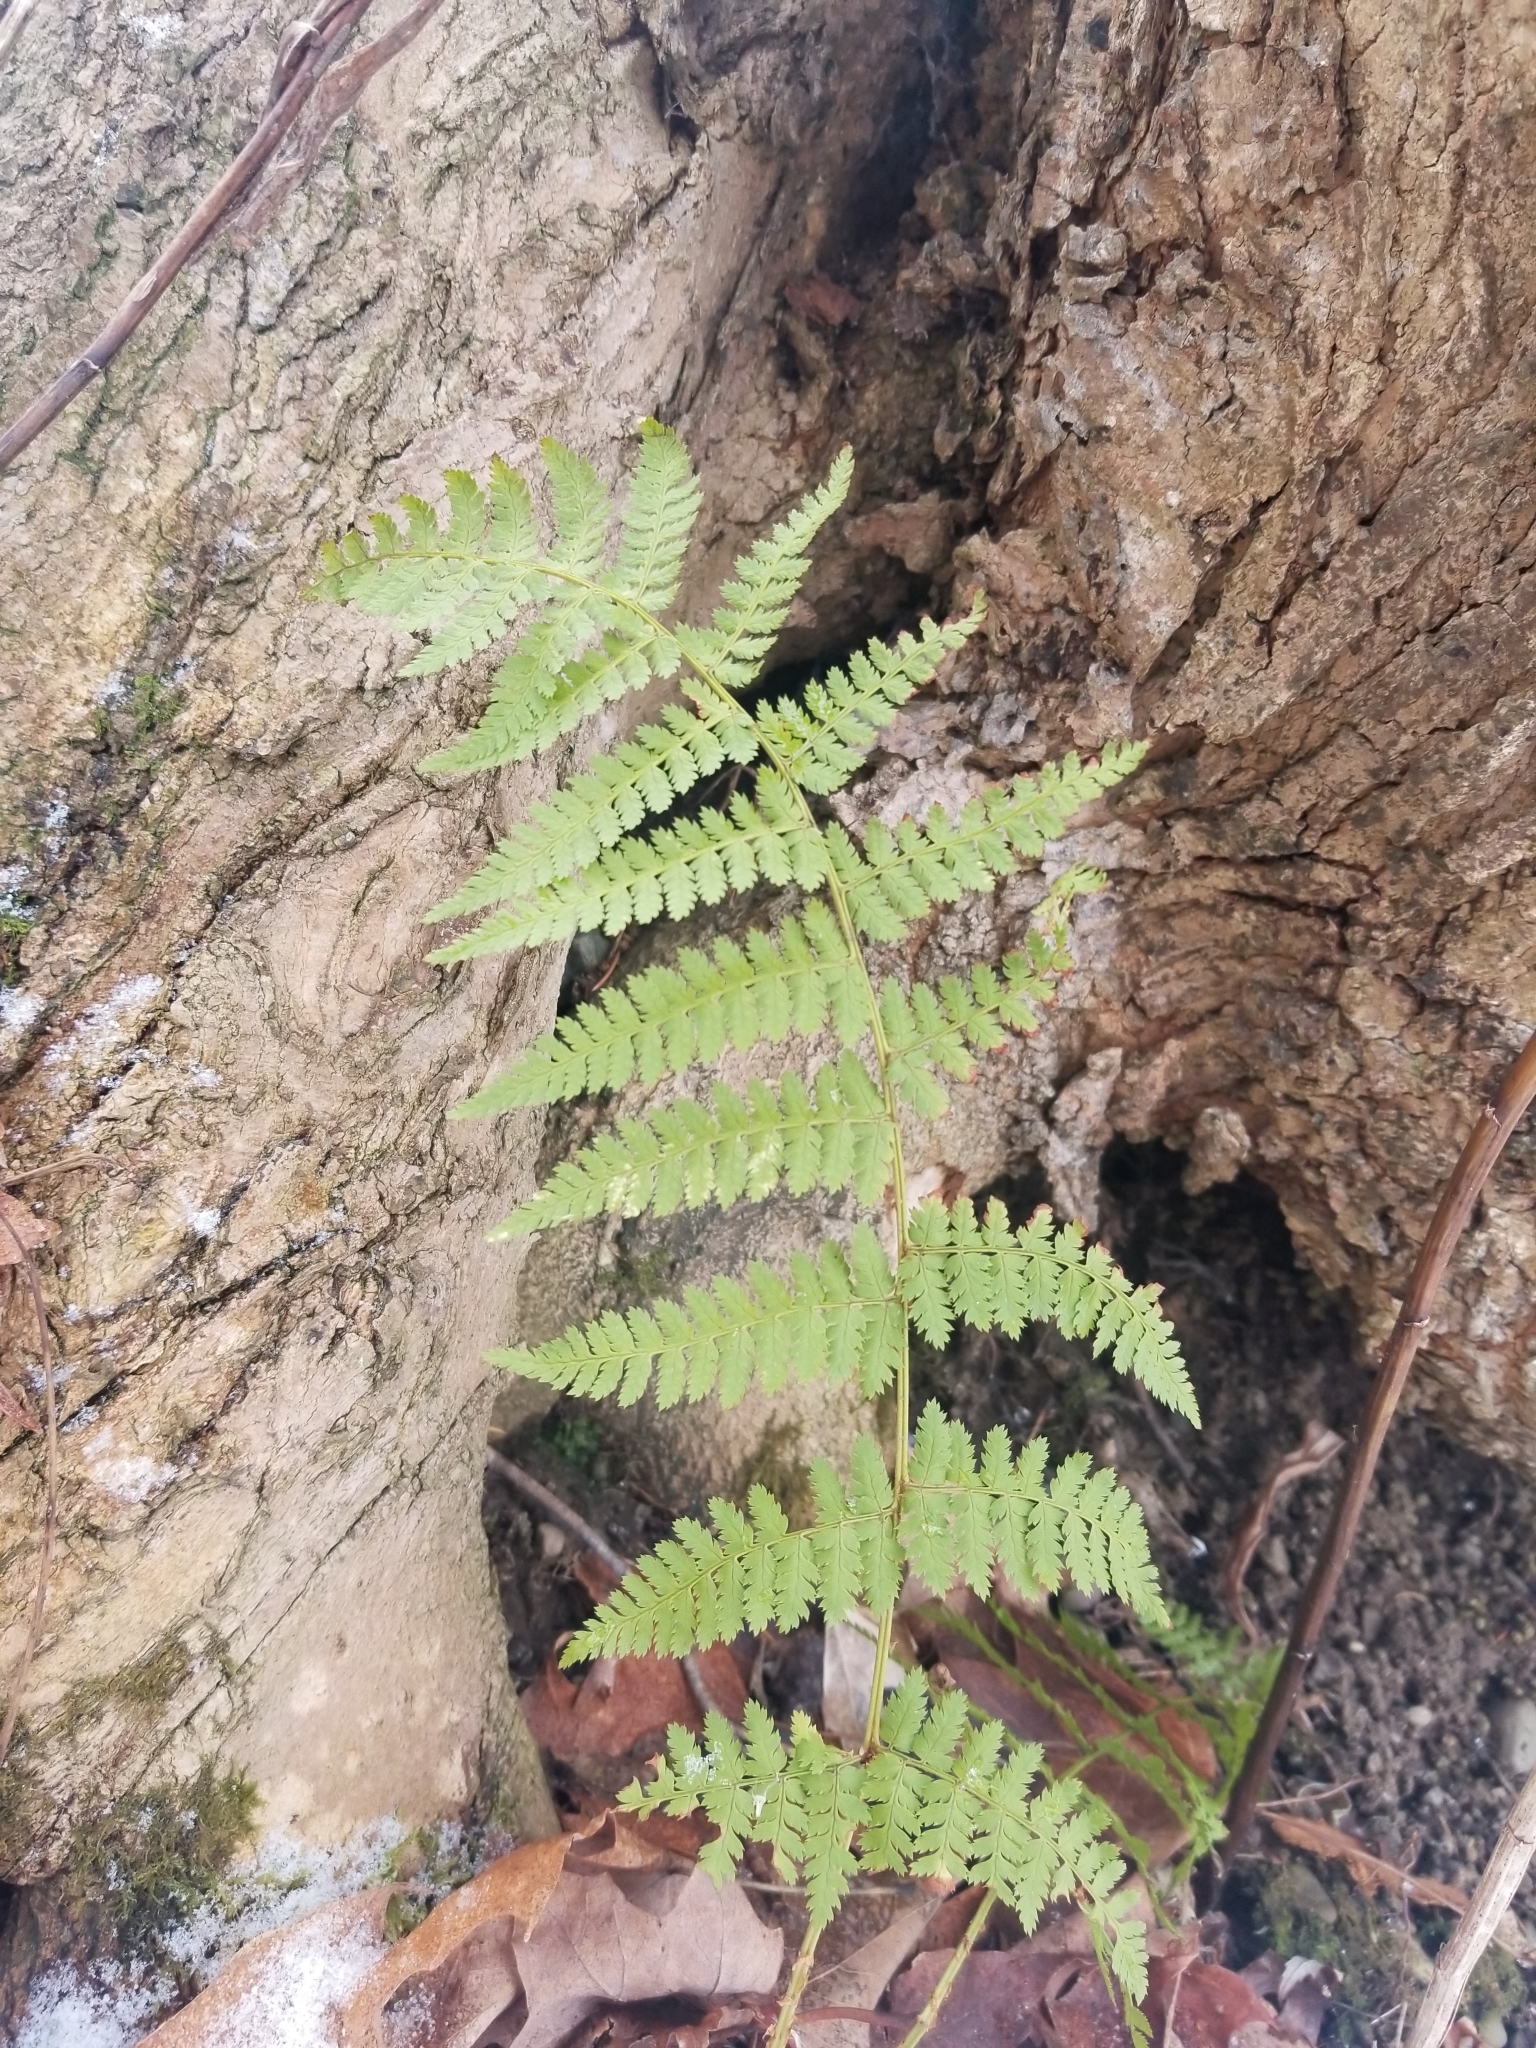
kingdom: Plantae
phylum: Tracheophyta
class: Polypodiopsida
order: Polypodiales
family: Dryopteridaceae
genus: Dryopteris
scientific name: Dryopteris intermedia
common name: Evergreen wood fern
